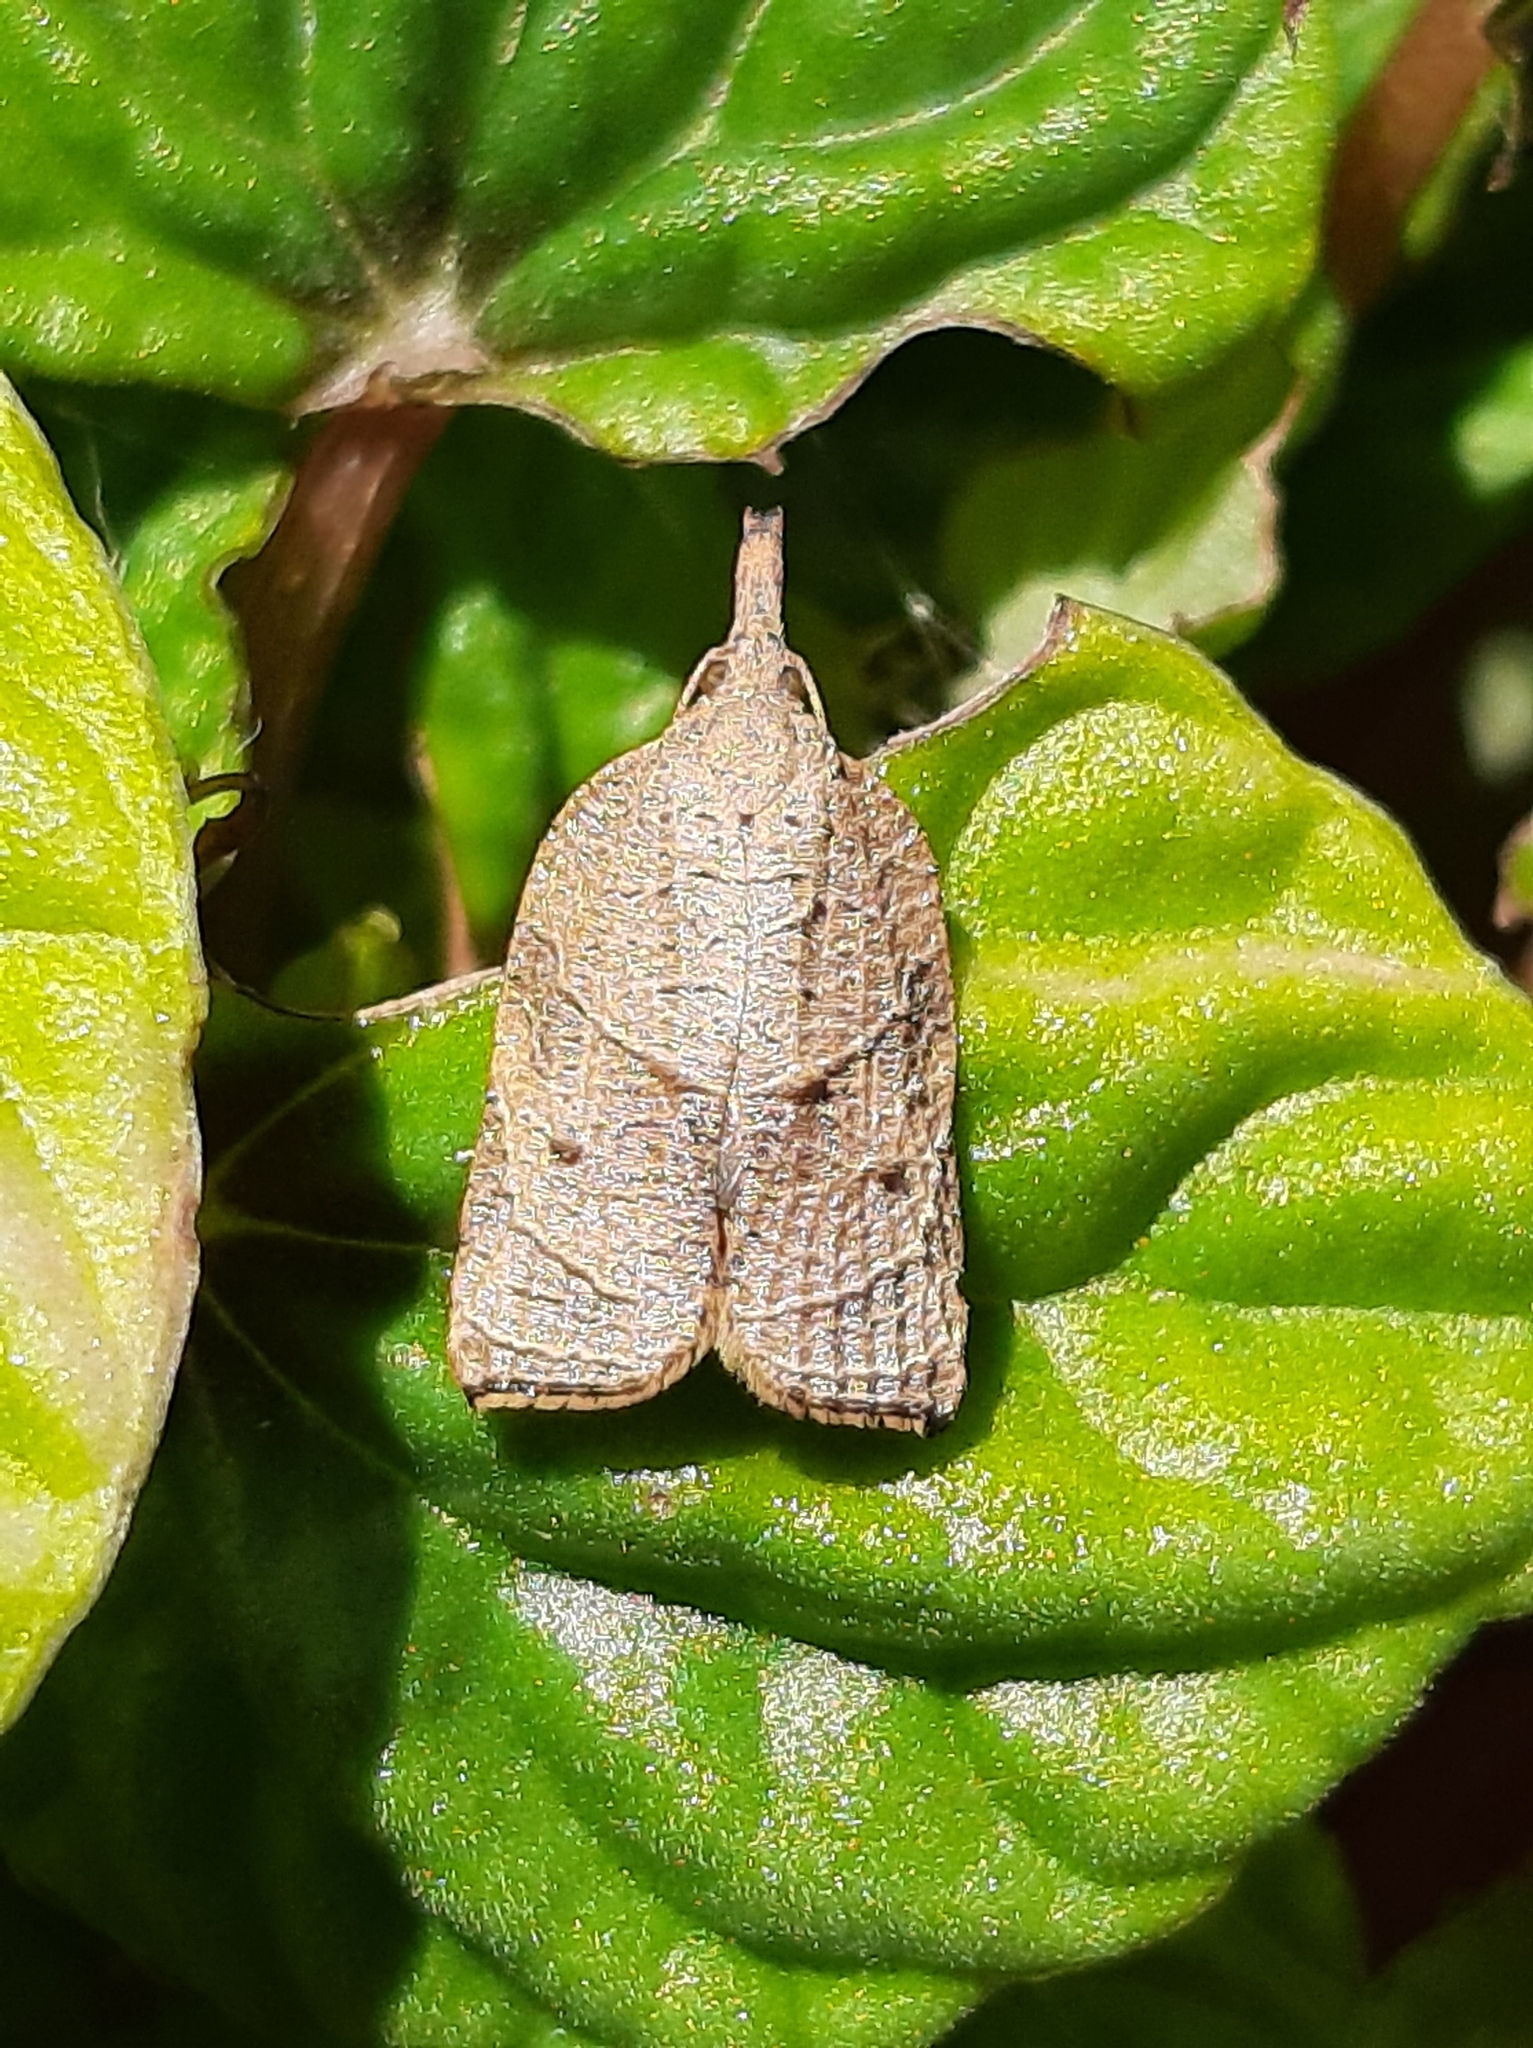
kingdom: Animalia
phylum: Arthropoda
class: Insecta
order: Lepidoptera
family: Tortricidae
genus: Platynota
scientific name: Platynota rostrana
